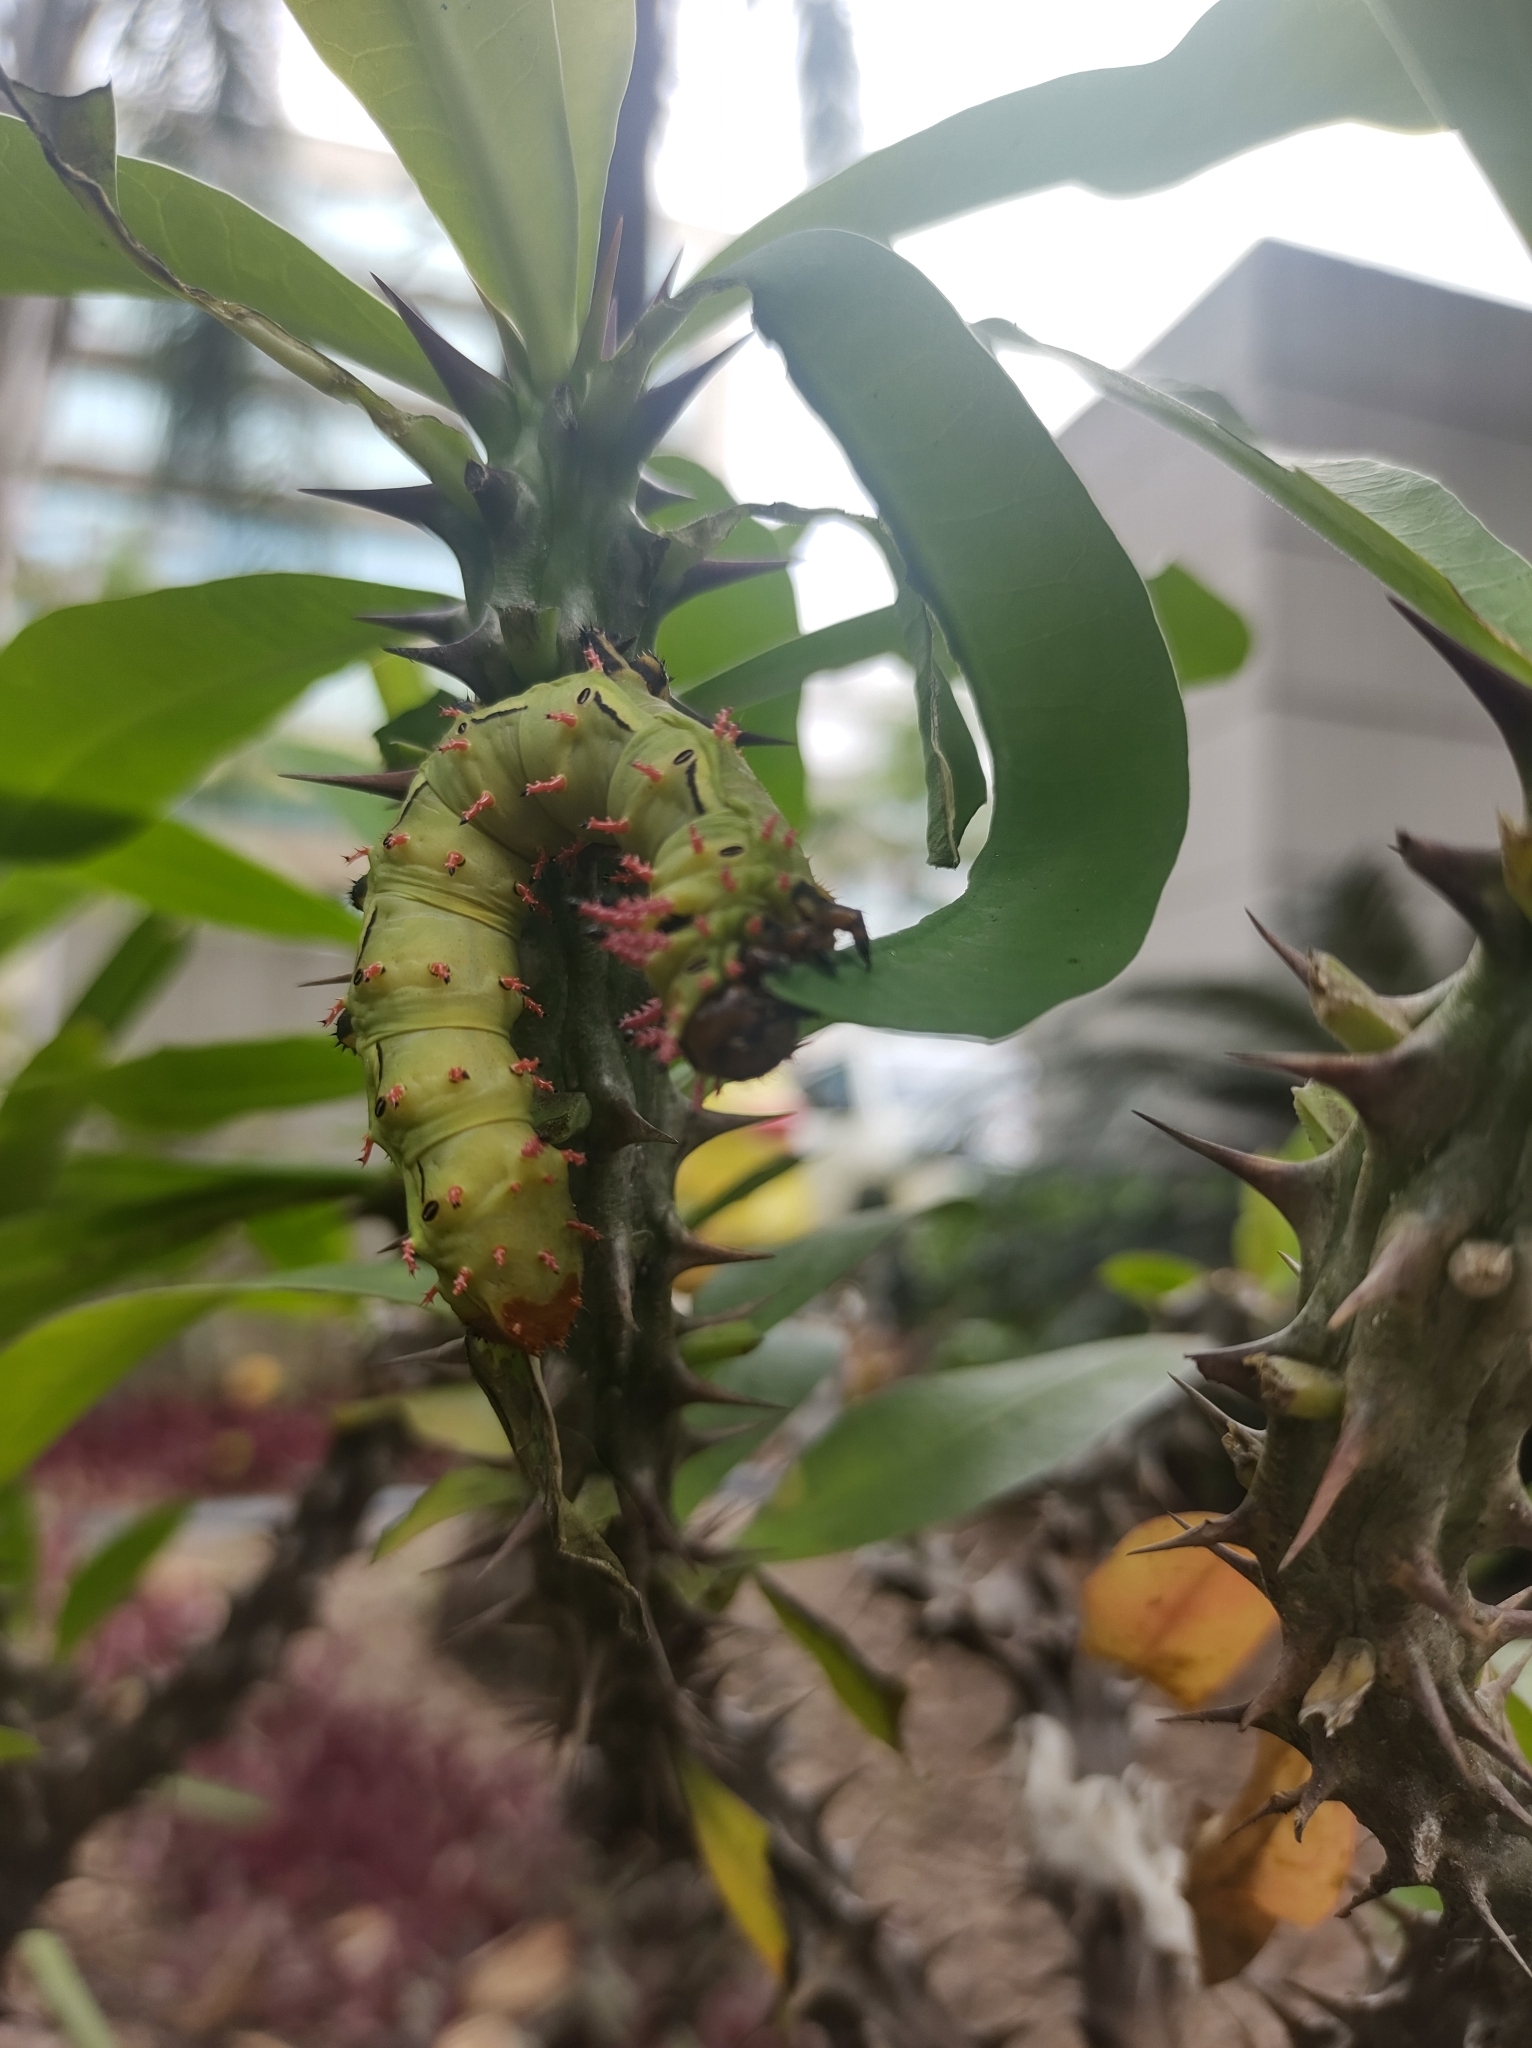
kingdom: Animalia
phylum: Arthropoda
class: Insecta
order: Lepidoptera
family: Saturniidae
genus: Citheronia
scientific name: Citheronia laocoon
